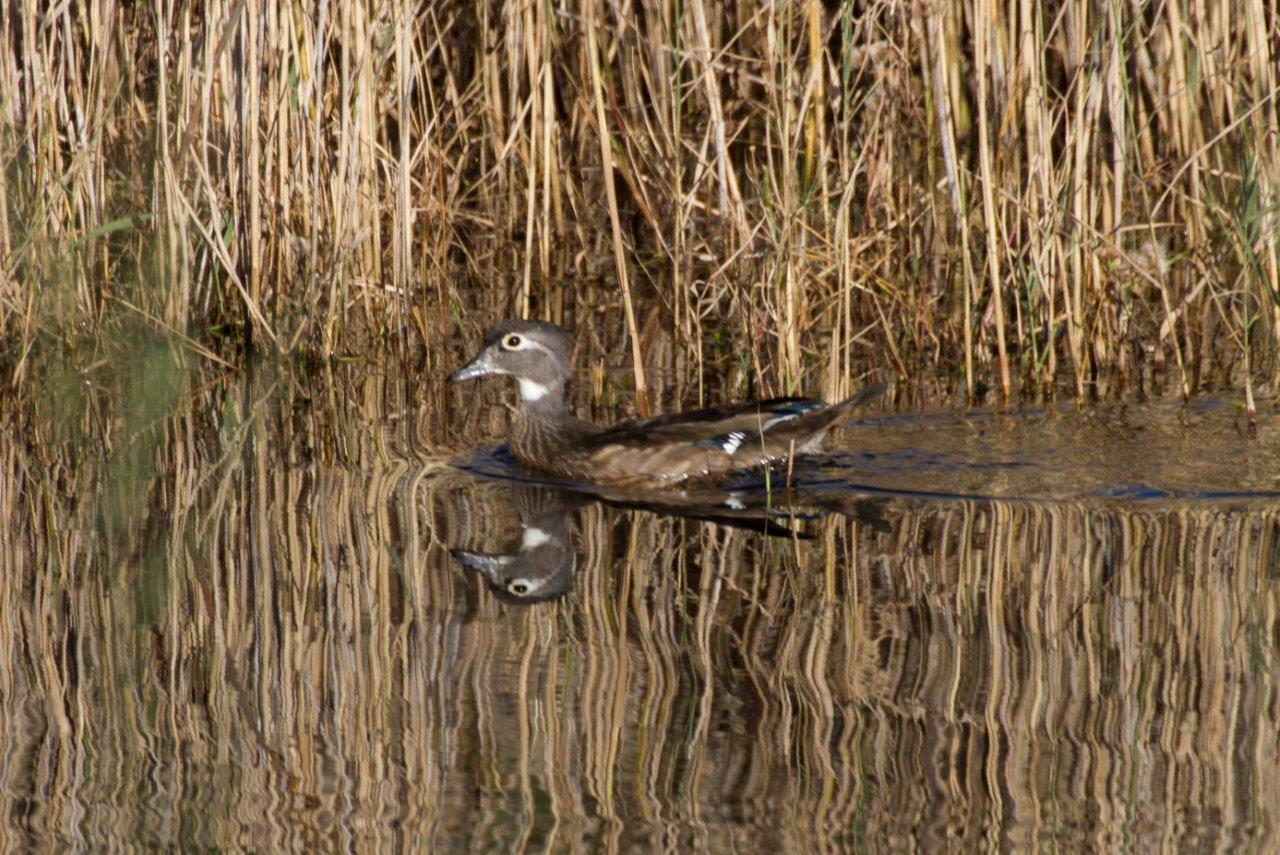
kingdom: Animalia
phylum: Chordata
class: Aves
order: Anseriformes
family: Anatidae
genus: Aix
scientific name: Aix sponsa
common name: Wood duck
